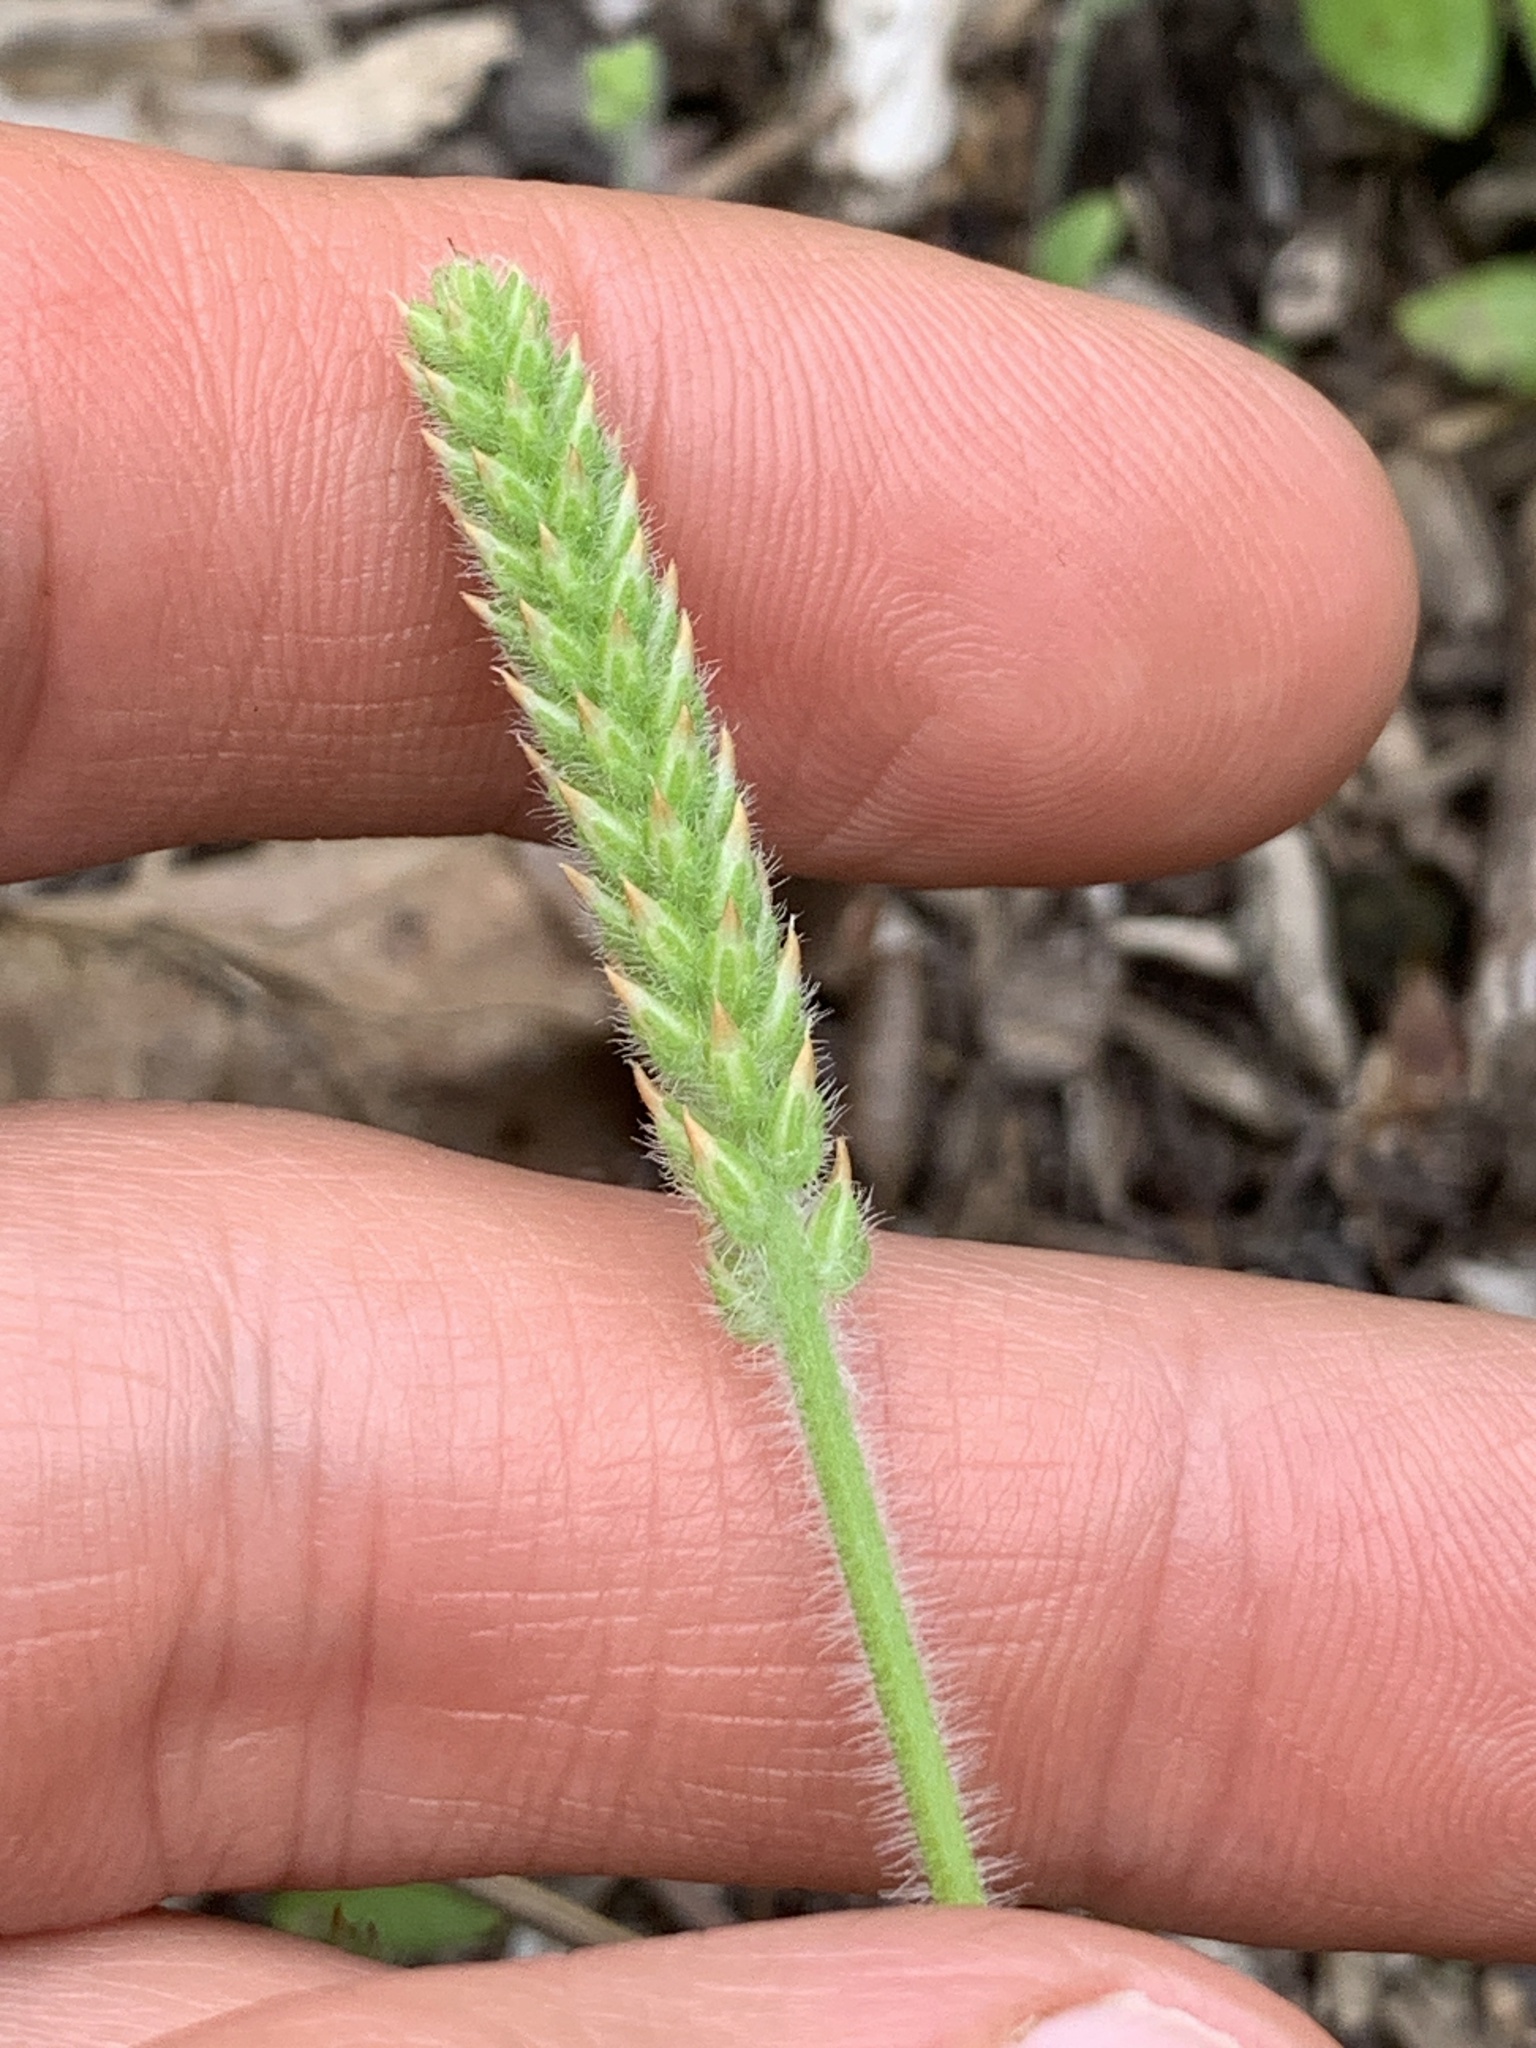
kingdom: Plantae
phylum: Tracheophyta
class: Magnoliopsida
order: Lamiales
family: Plantaginaceae
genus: Plantago
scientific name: Plantago virginica
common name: Hoary plantain
